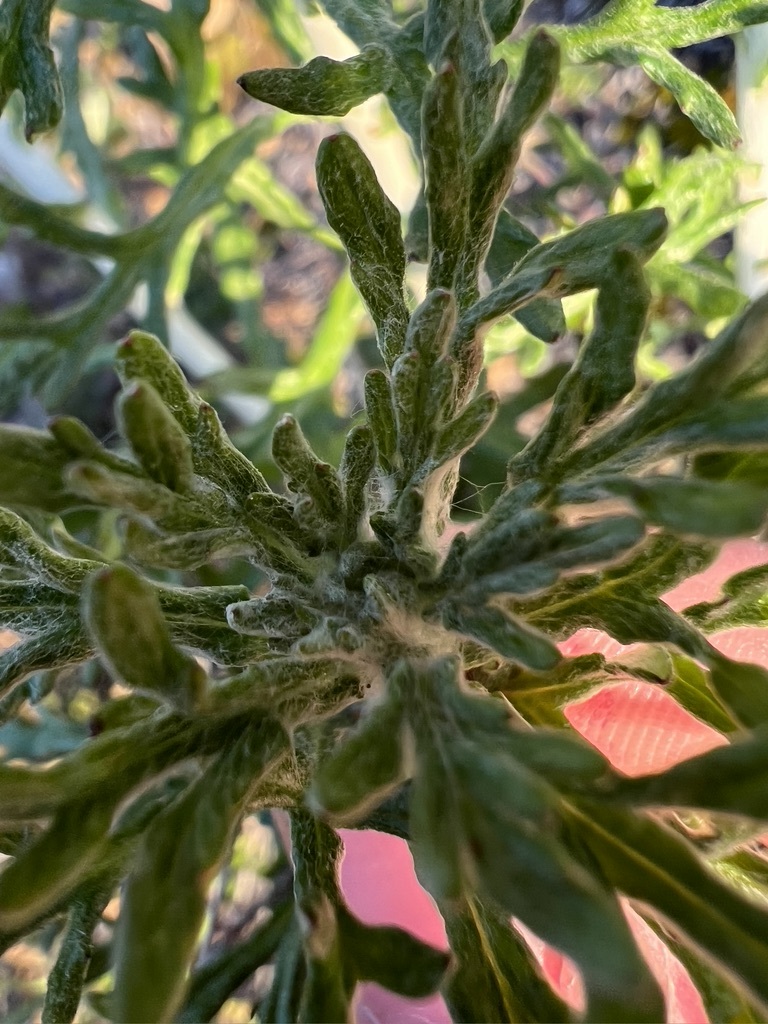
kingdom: Plantae
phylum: Tracheophyta
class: Magnoliopsida
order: Asterales
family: Asteraceae
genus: Eriophyllum
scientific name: Eriophyllum confertiflorum
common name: Golden-yarrow
